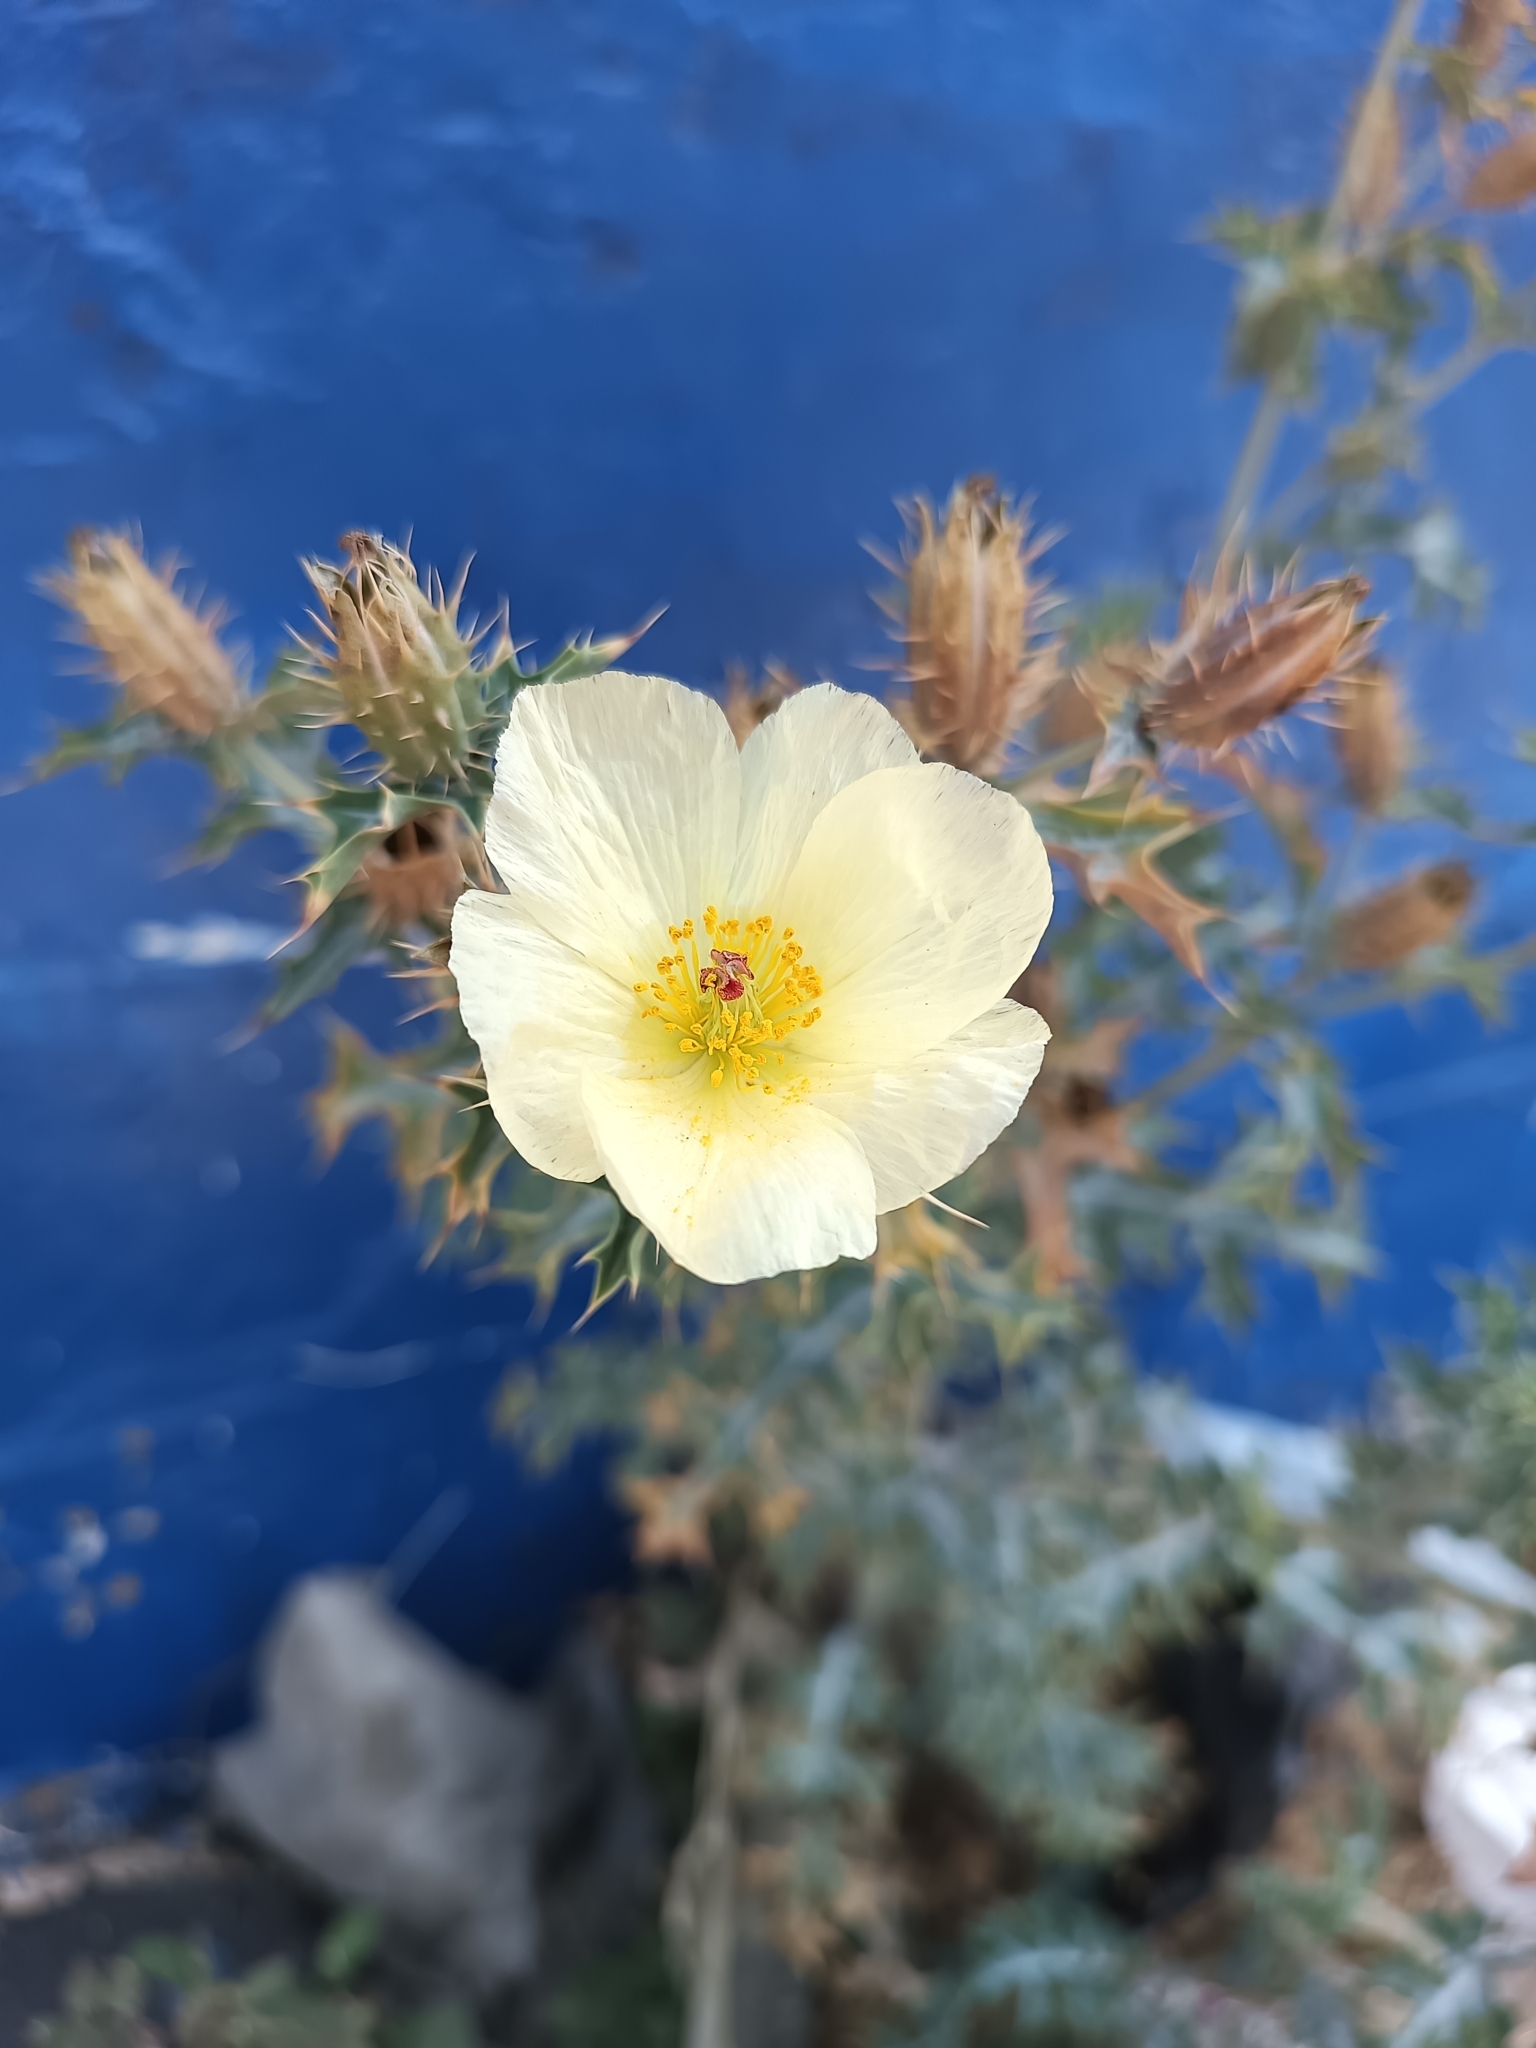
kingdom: Plantae
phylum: Tracheophyta
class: Magnoliopsida
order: Ranunculales
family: Papaveraceae
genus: Argemone
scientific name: Argemone ochroleuca
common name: White-flower mexican-poppy
